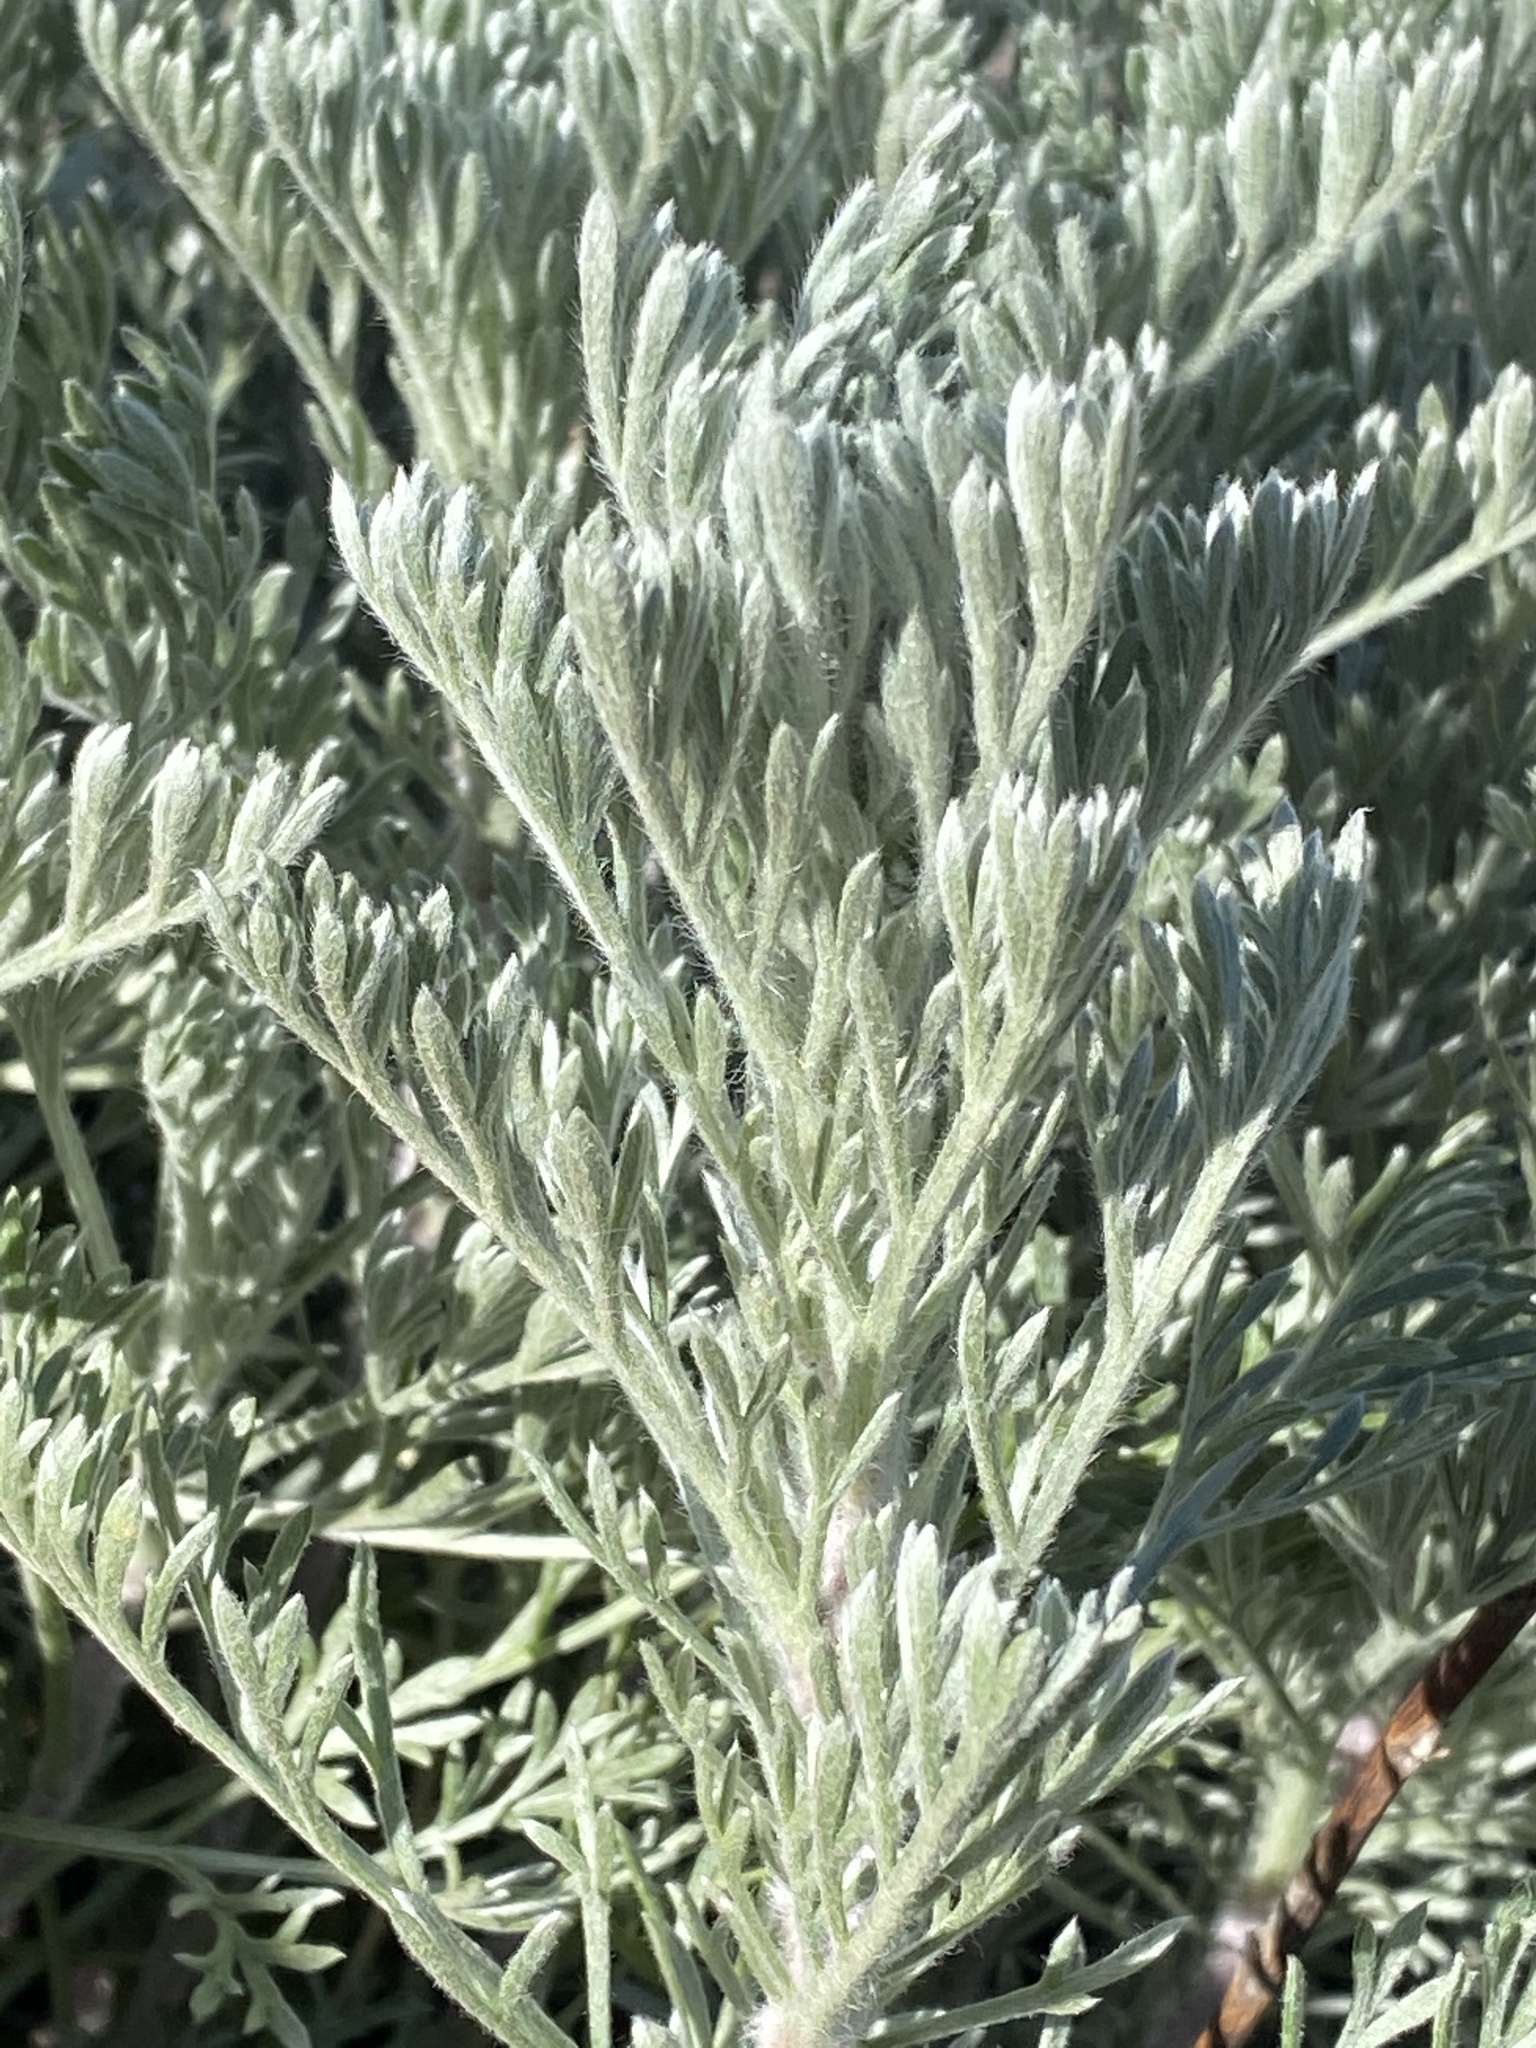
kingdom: Plantae
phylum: Tracheophyta
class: Magnoliopsida
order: Asterales
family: Asteraceae
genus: Artemisia
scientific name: Artemisia pycnocephala
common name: Coastal sagewort
